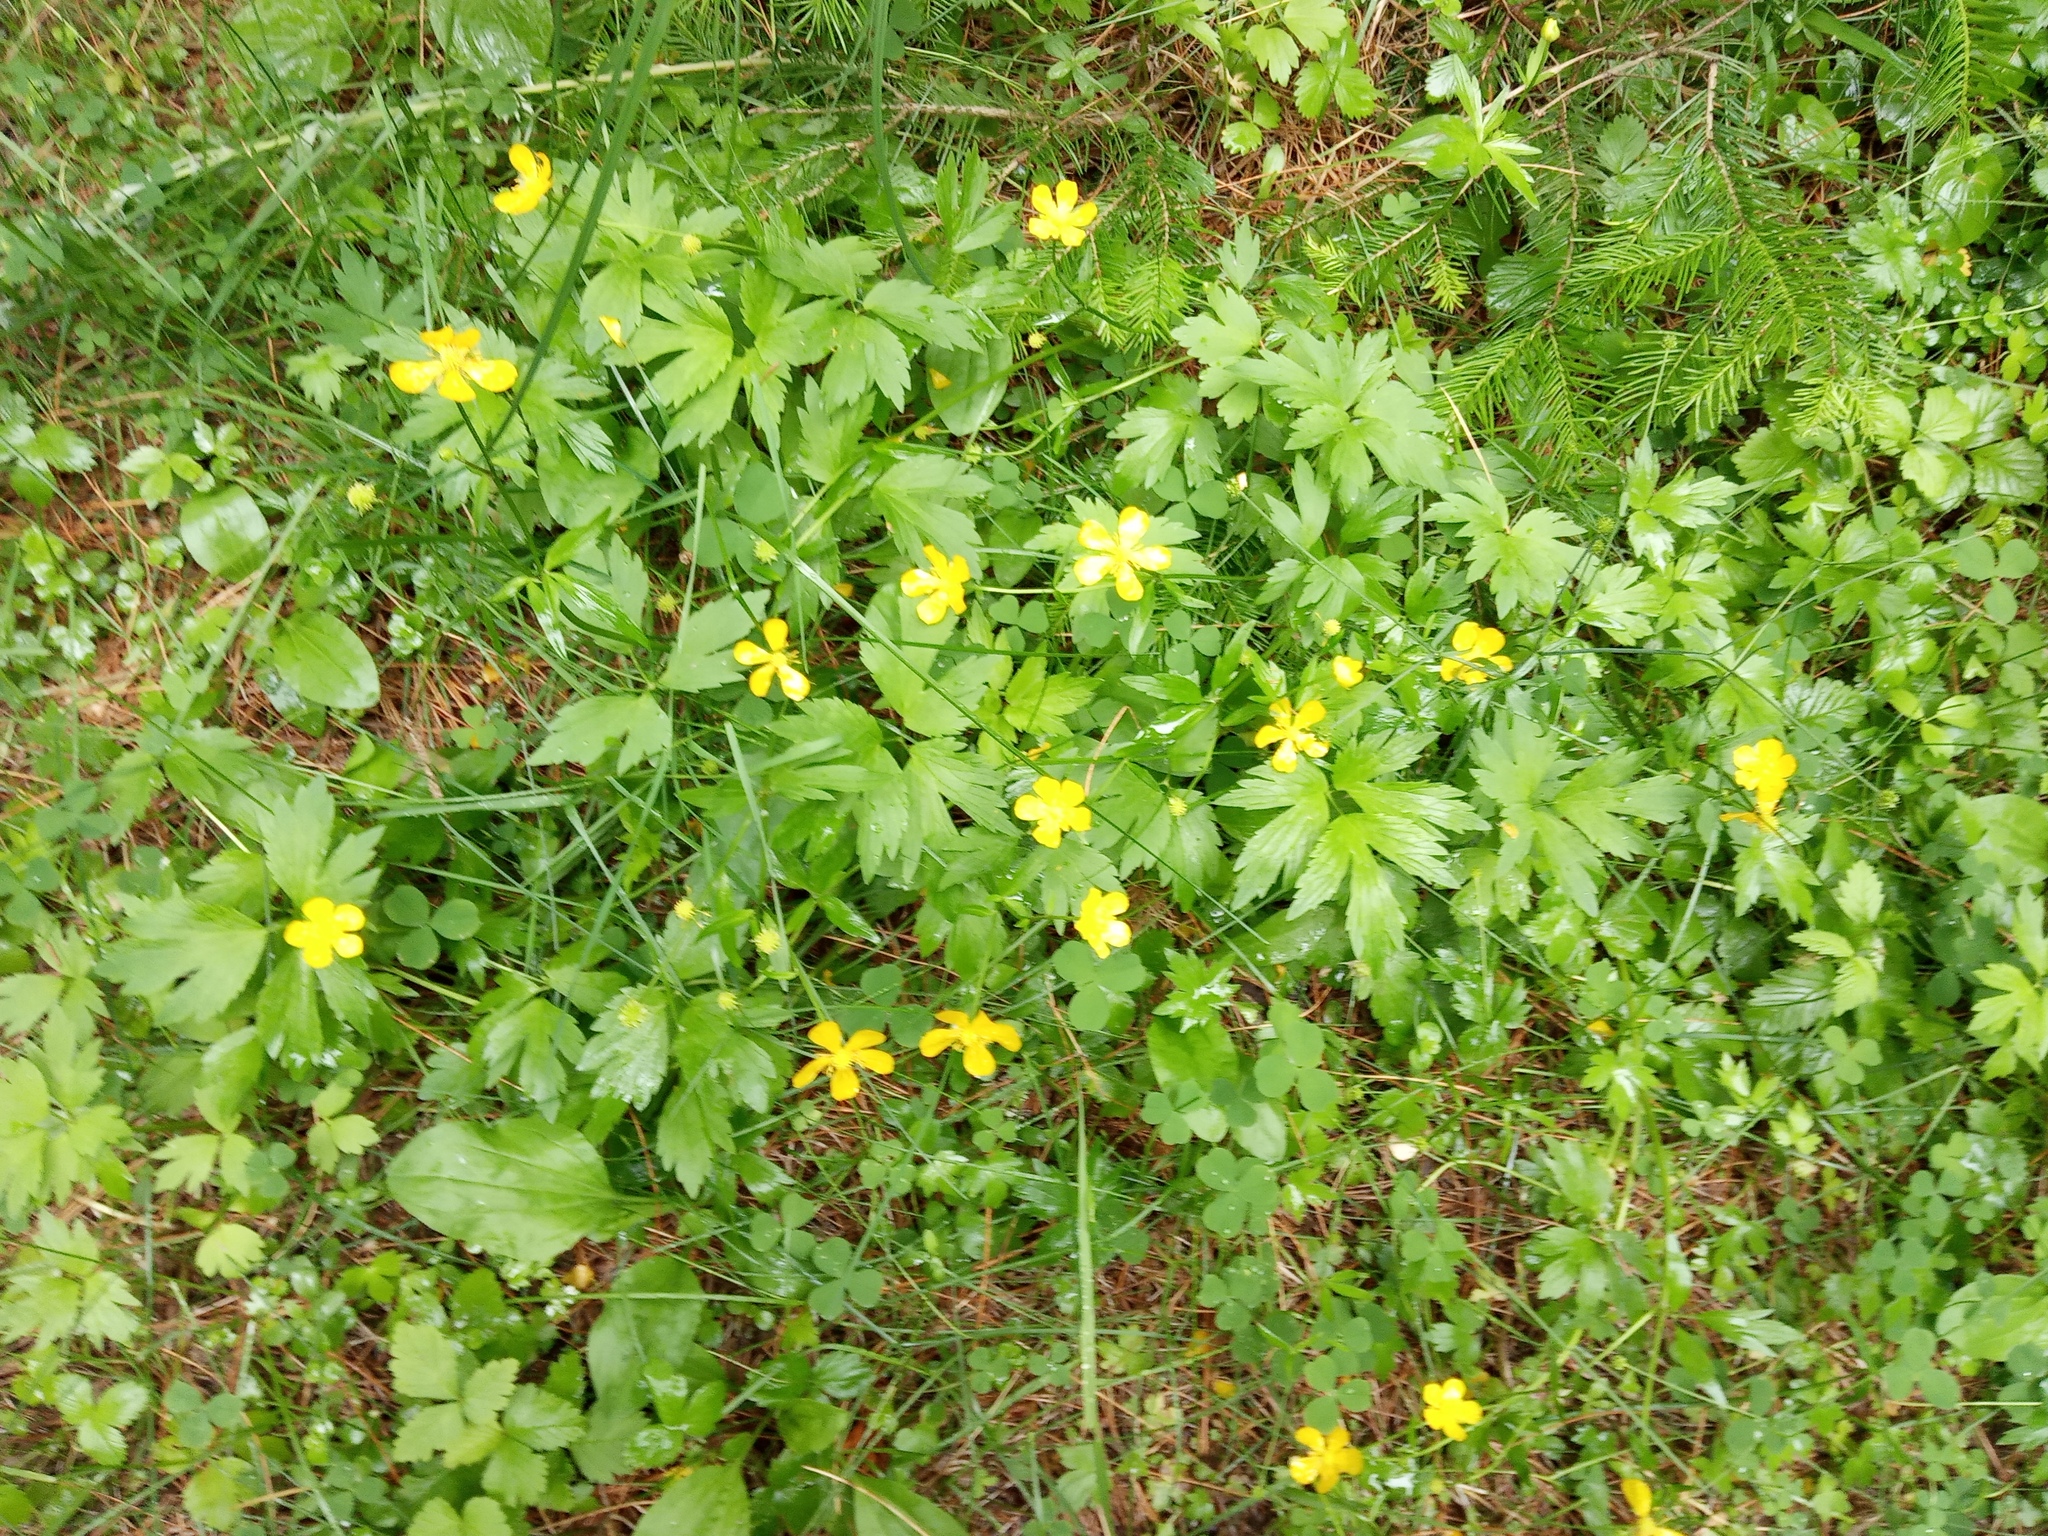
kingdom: Plantae
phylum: Tracheophyta
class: Magnoliopsida
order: Ranunculales
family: Ranunculaceae
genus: Ranunculus
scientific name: Ranunculus repens
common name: Creeping buttercup
